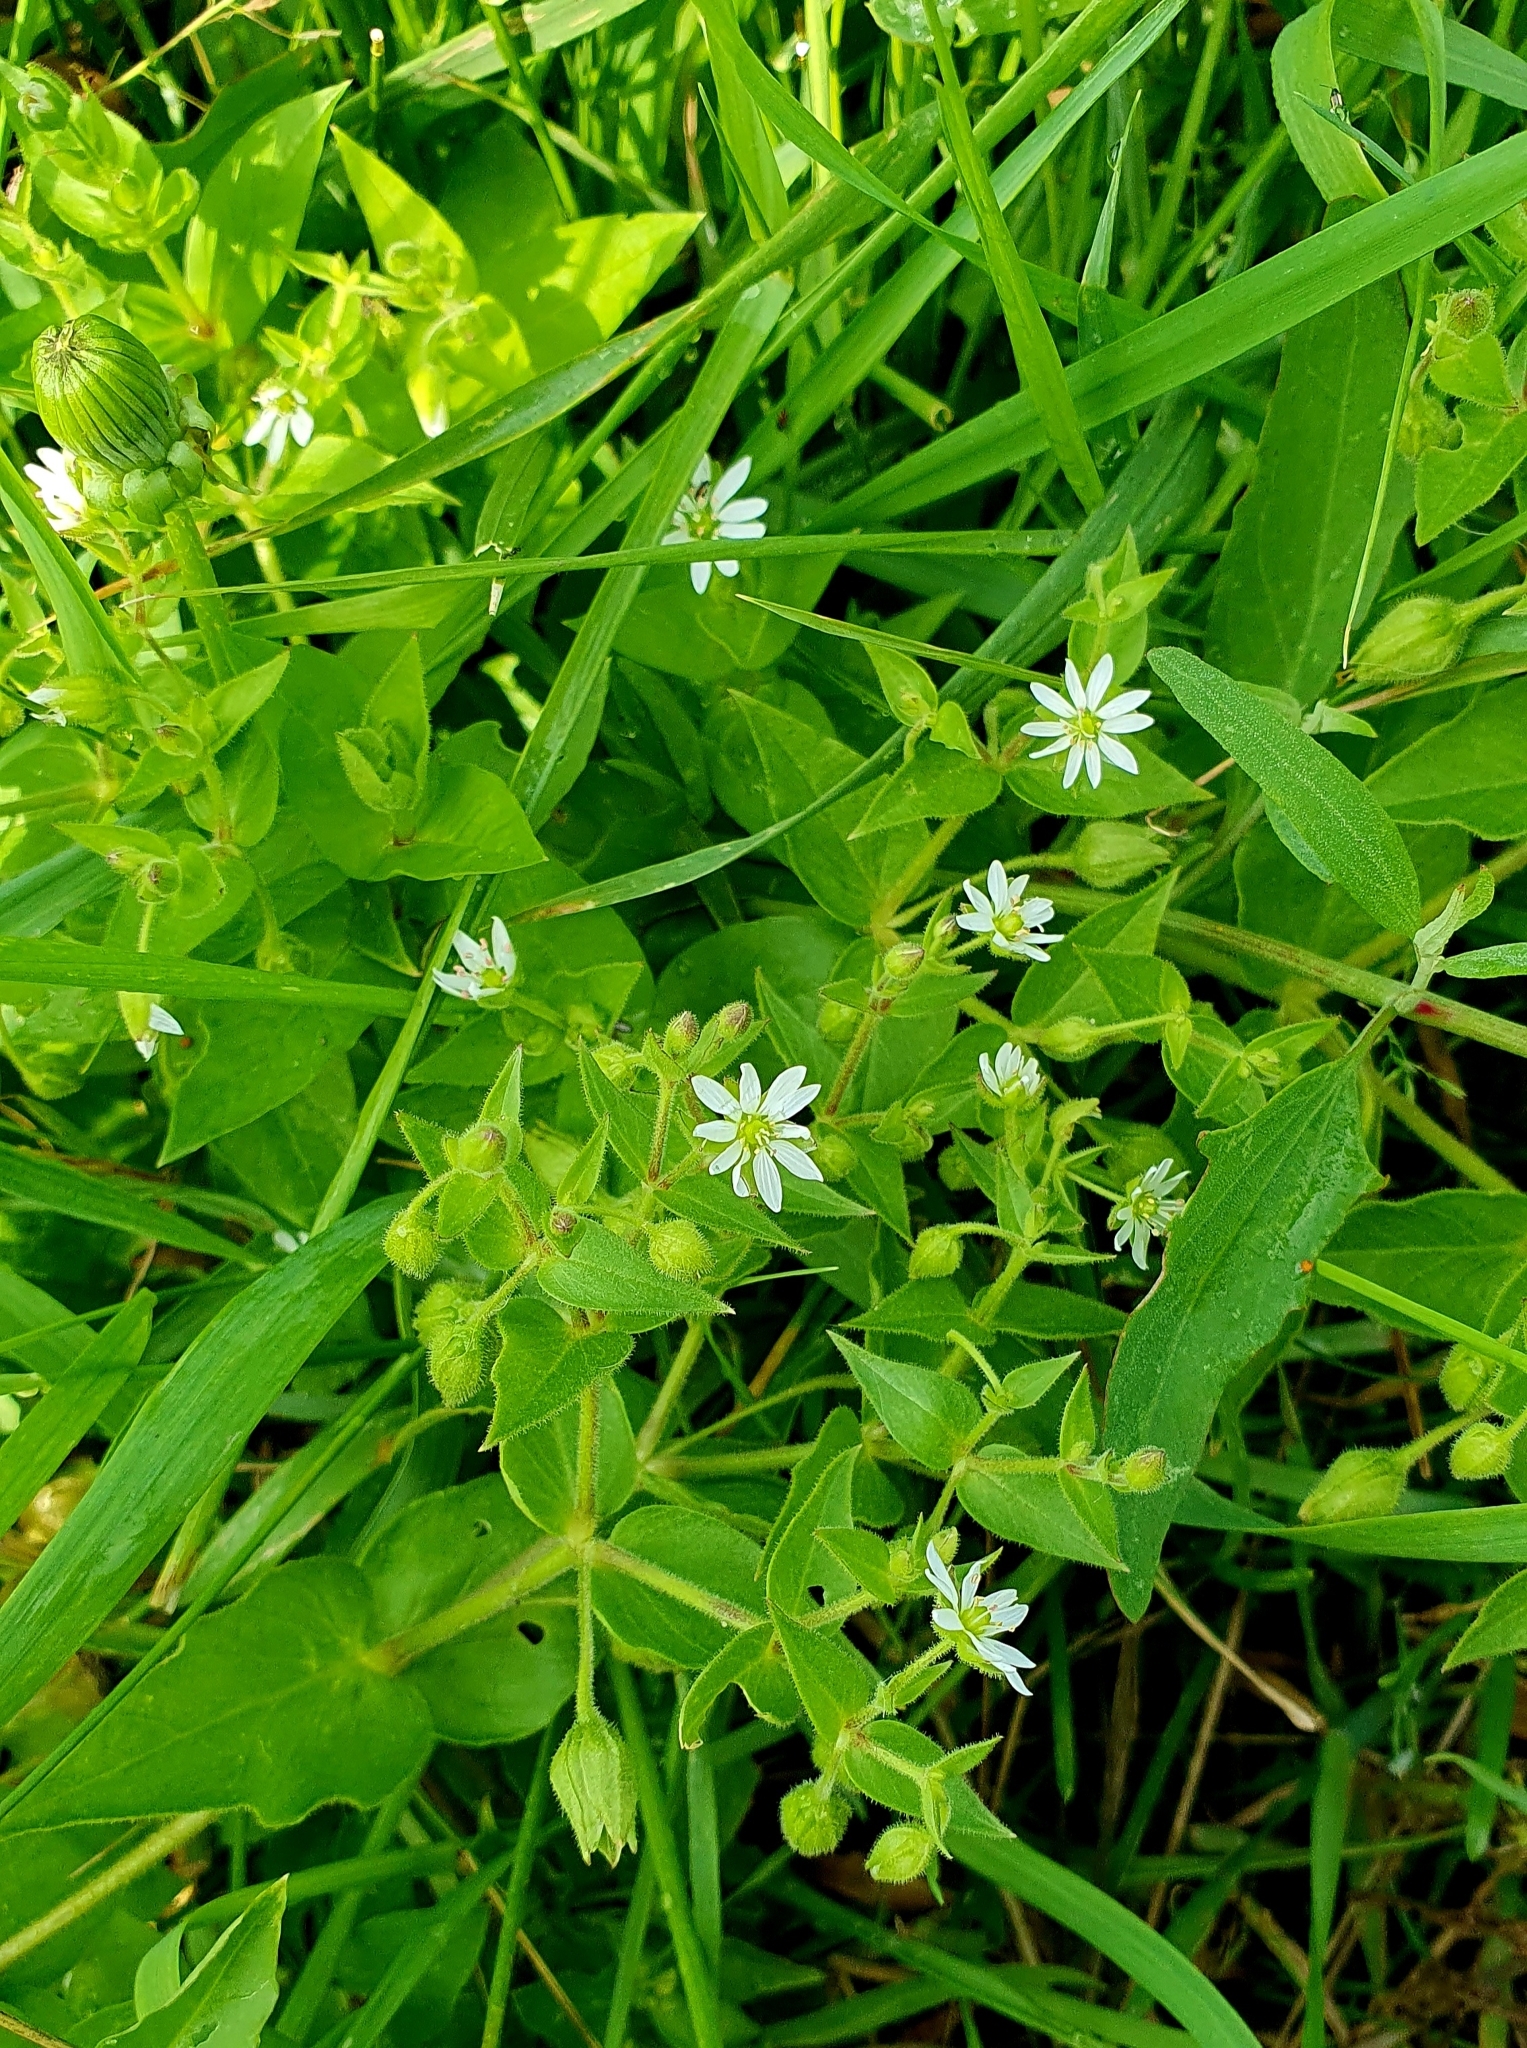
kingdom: Plantae
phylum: Tracheophyta
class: Magnoliopsida
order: Caryophyllales
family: Caryophyllaceae
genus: Stellaria
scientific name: Stellaria aquatica
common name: Water chickweed
